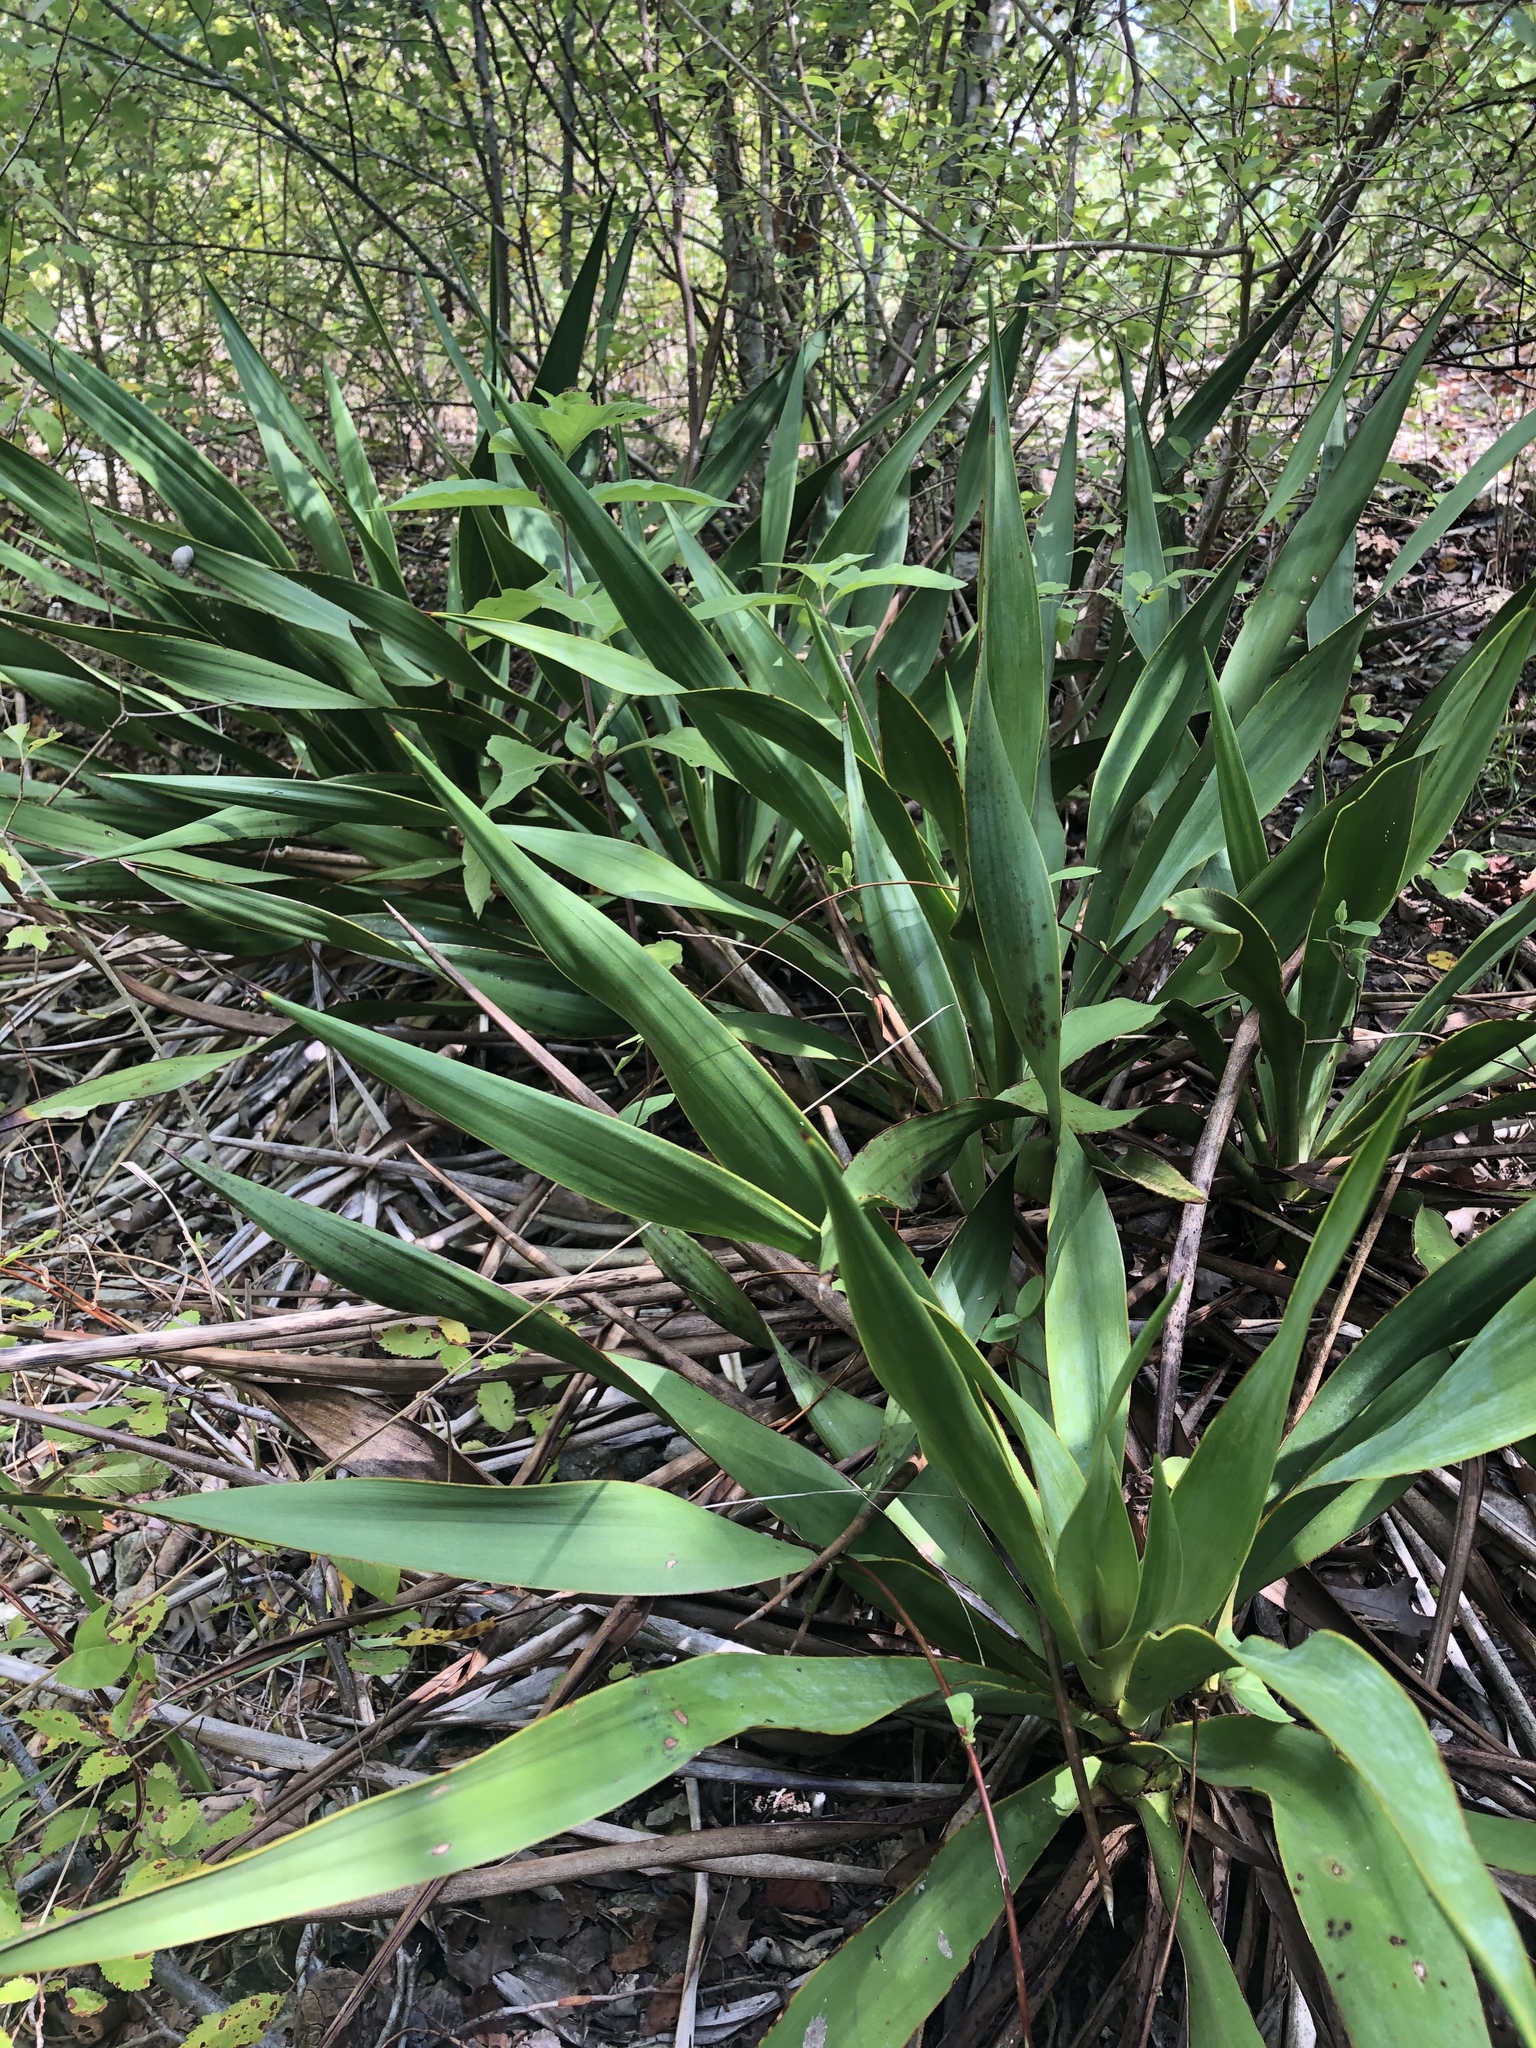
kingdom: Plantae
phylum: Tracheophyta
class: Liliopsida
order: Asparagales
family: Asparagaceae
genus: Yucca
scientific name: Yucca rupicola
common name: Twisted-leaf spanish-dagger
